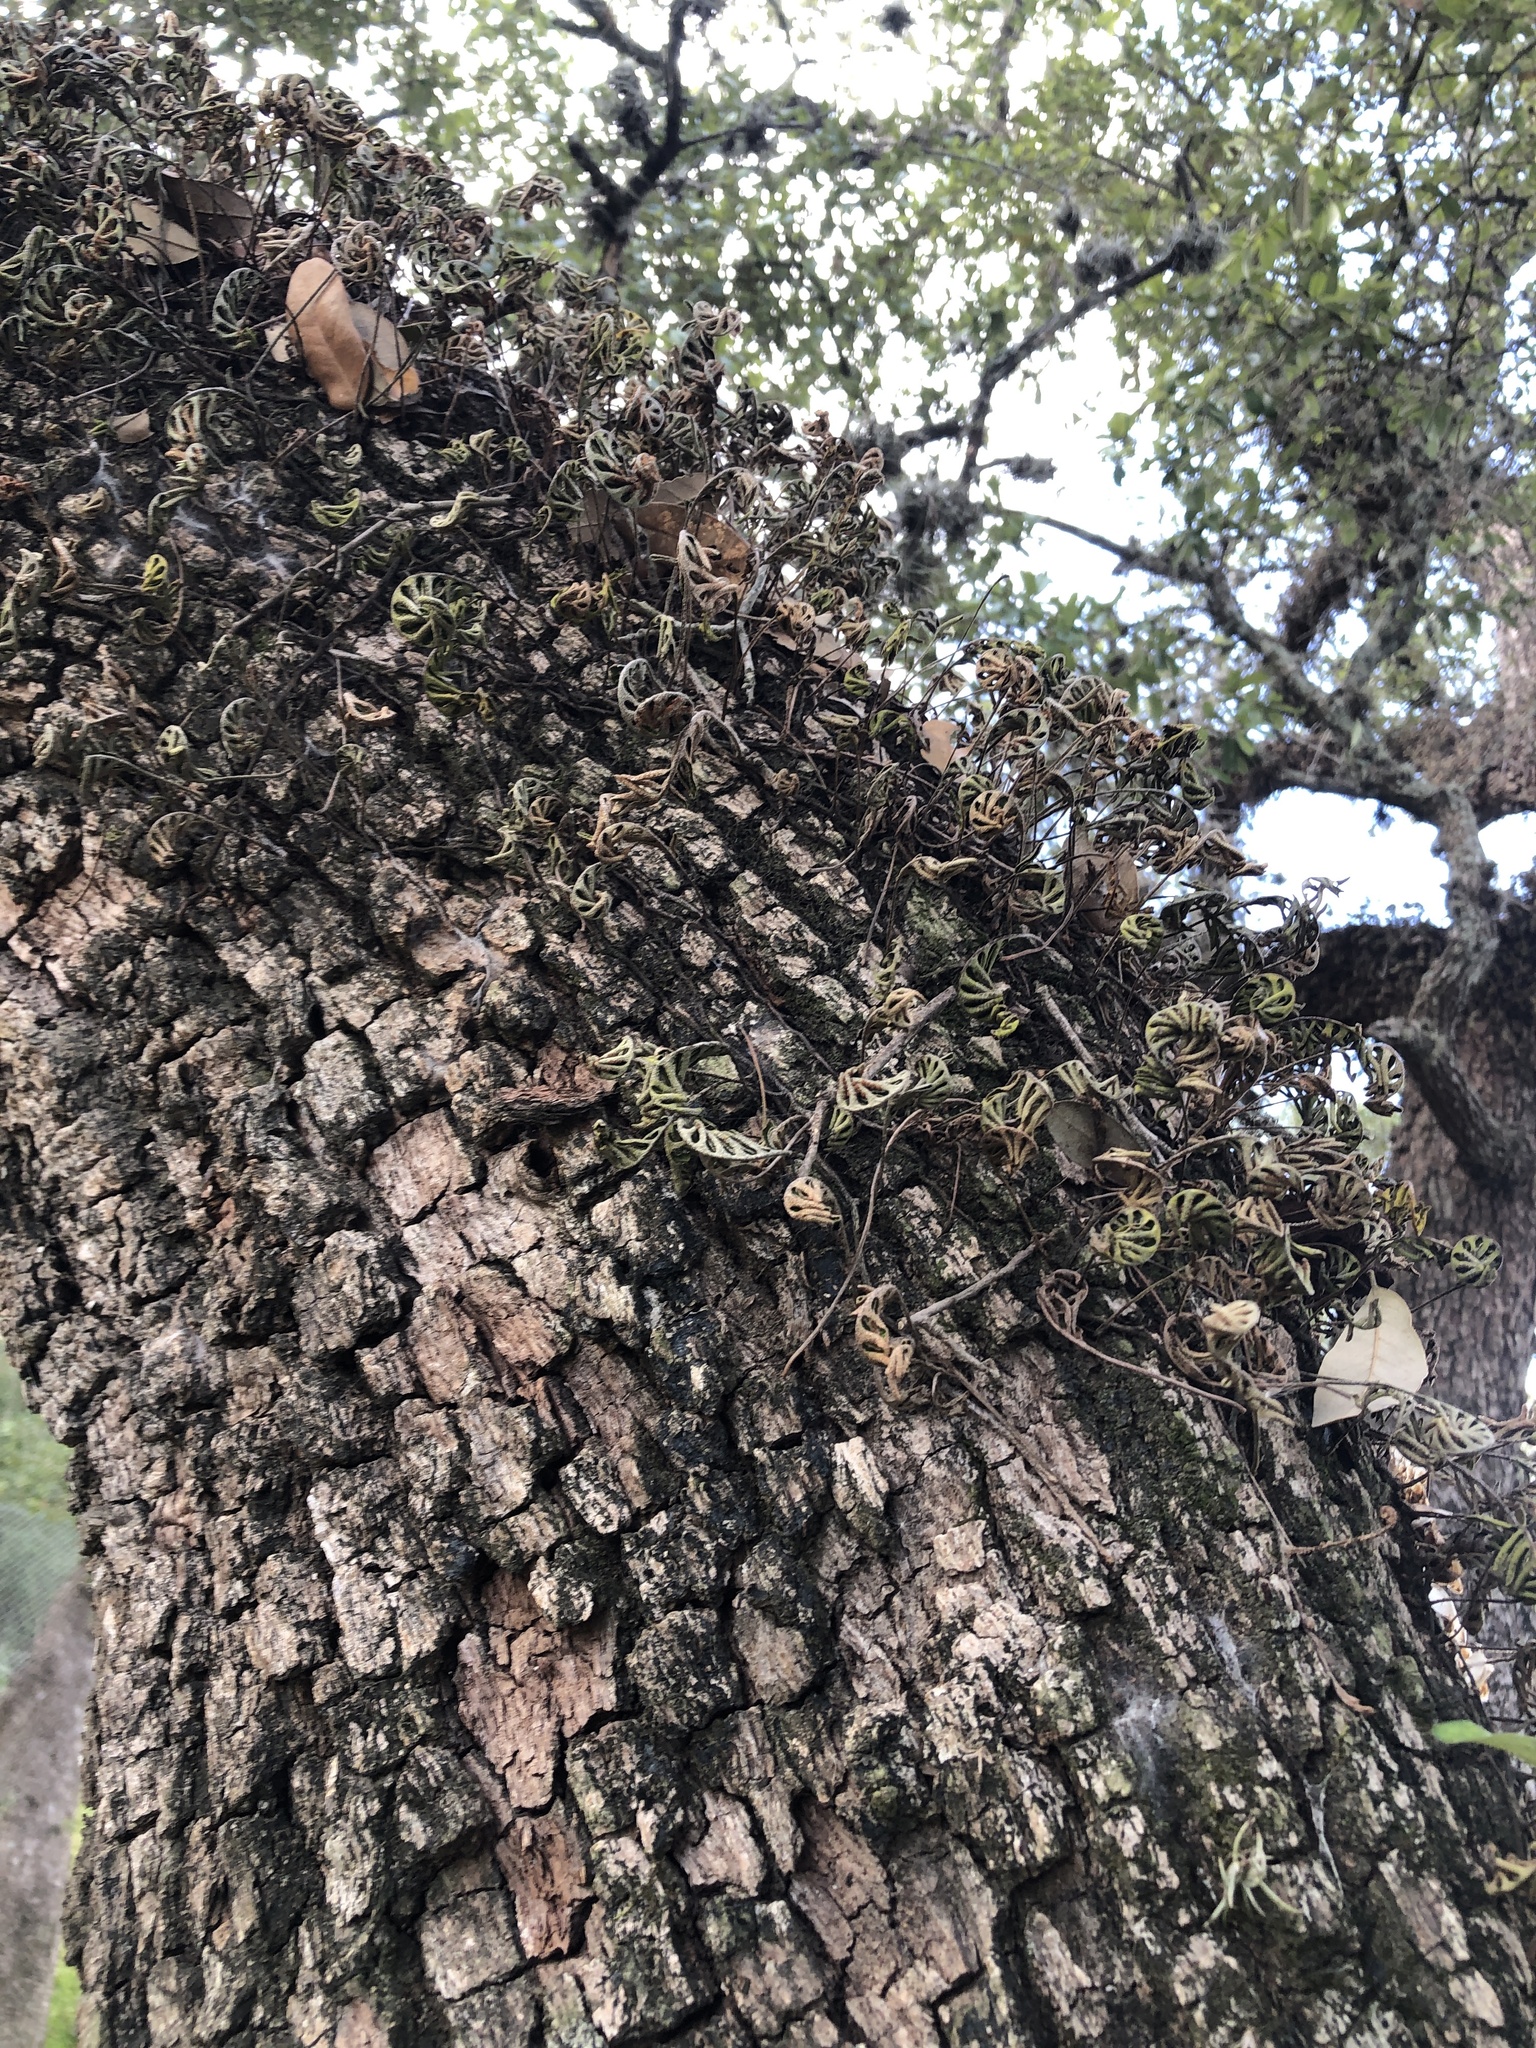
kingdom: Plantae
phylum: Tracheophyta
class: Polypodiopsida
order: Polypodiales
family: Polypodiaceae
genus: Pleopeltis
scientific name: Pleopeltis michauxiana
